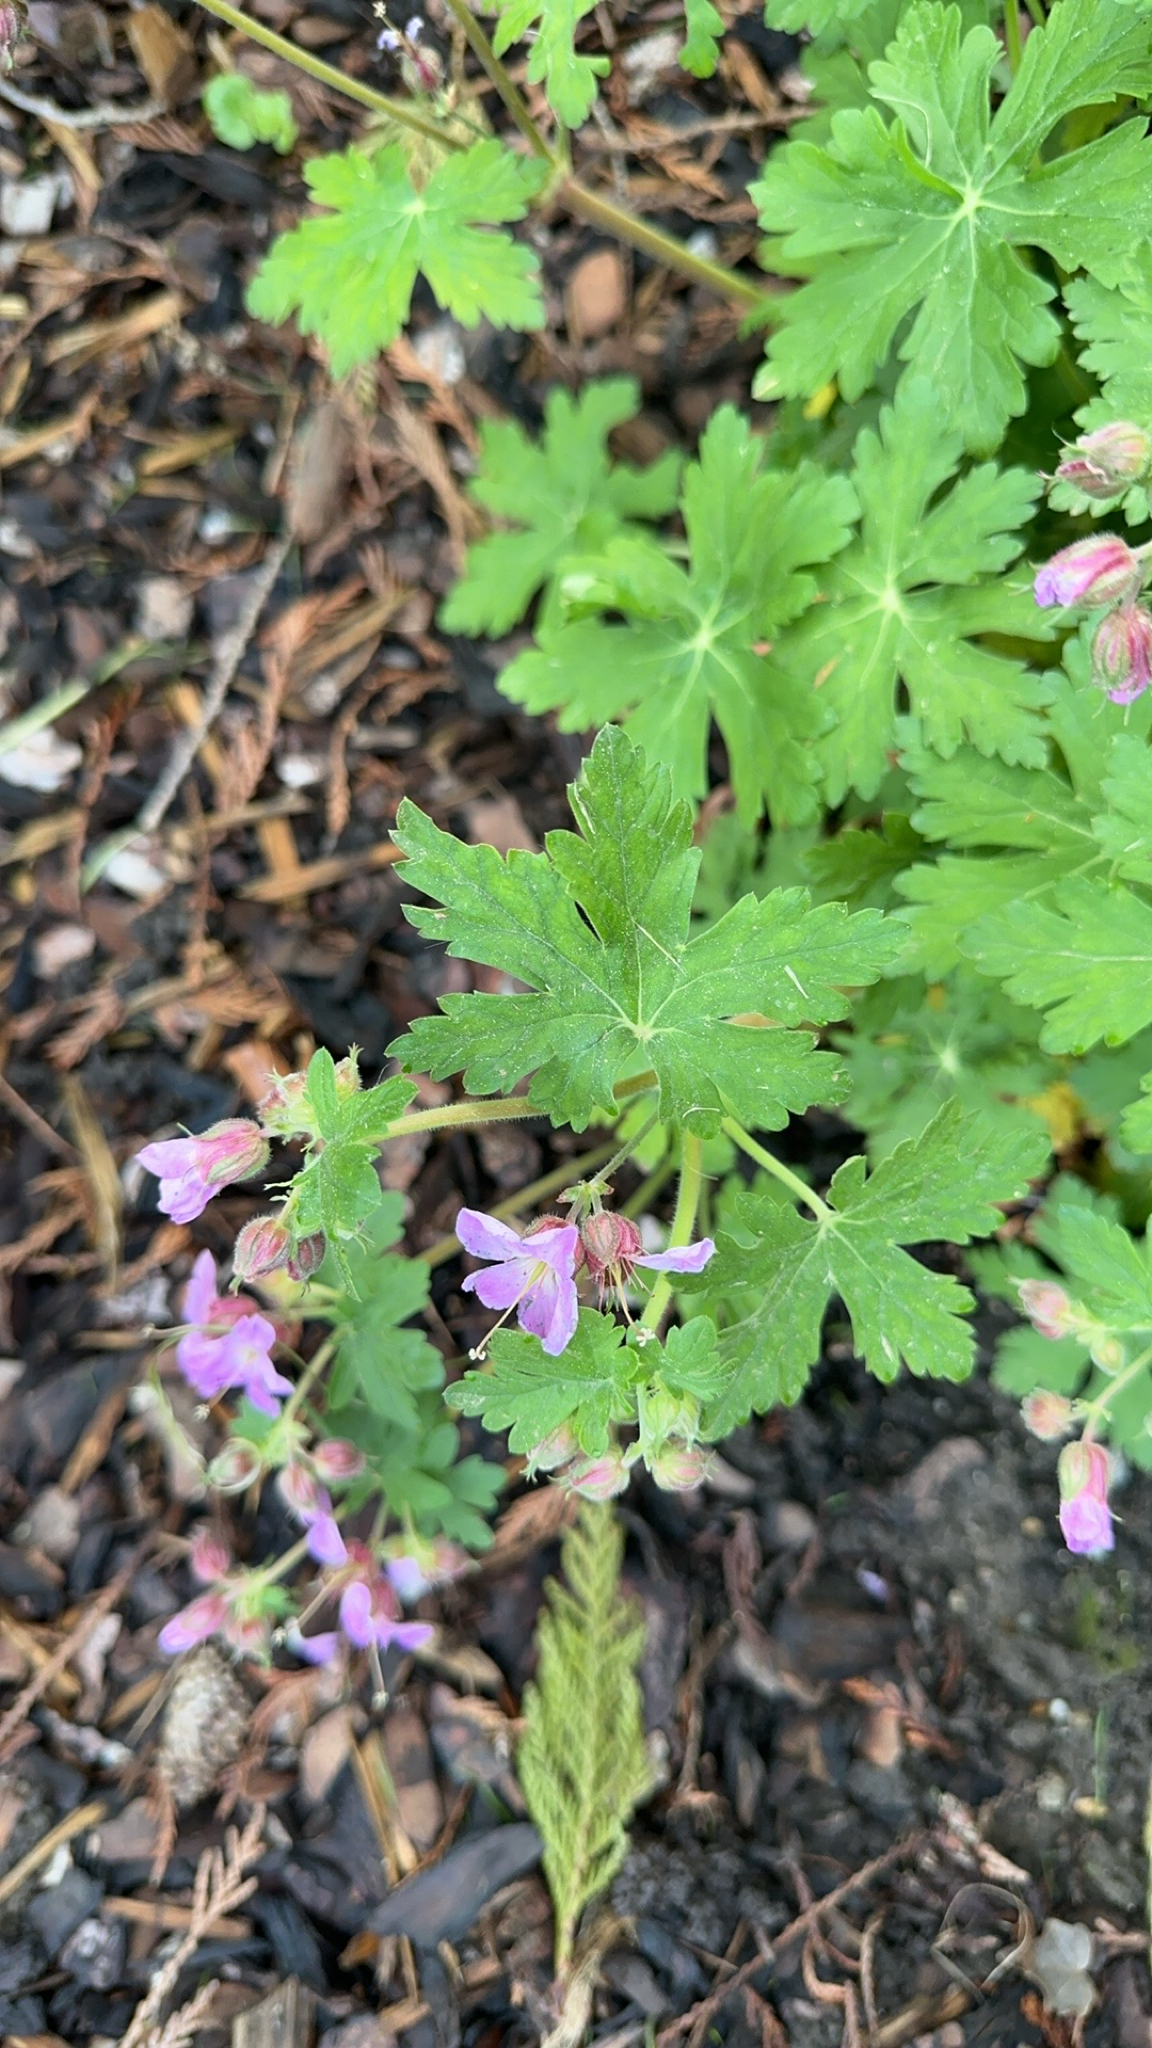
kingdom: Plantae
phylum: Tracheophyta
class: Magnoliopsida
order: Geraniales
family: Geraniaceae
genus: Geranium
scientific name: Geranium macrorrhizum
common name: Rock crane's-bill
